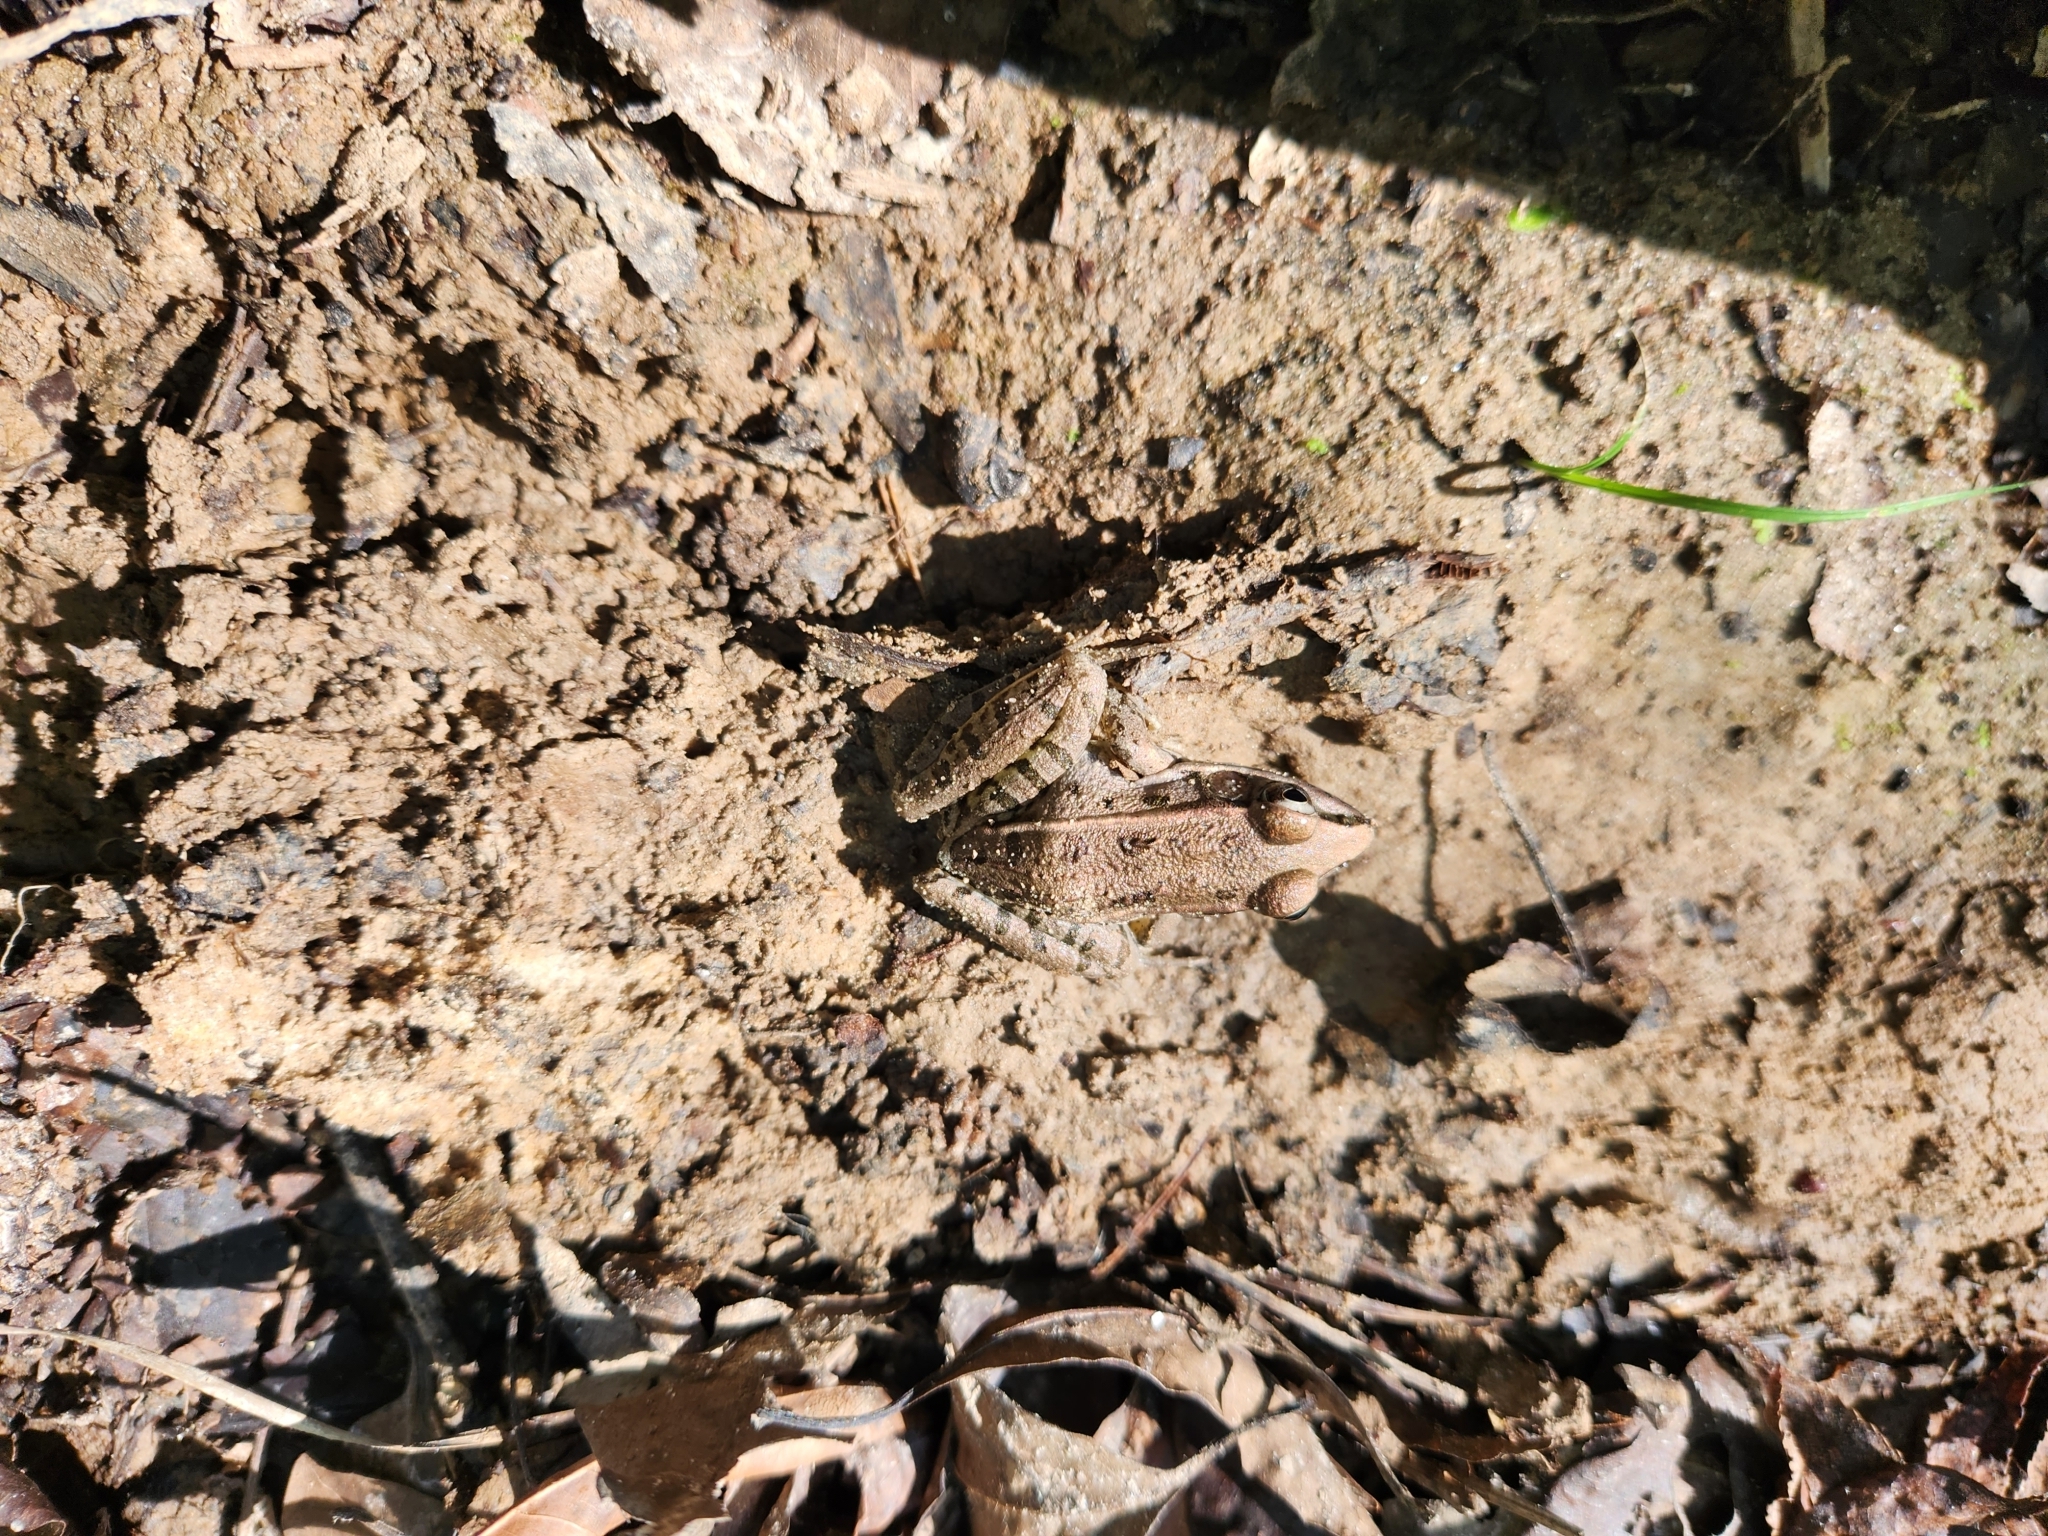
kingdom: Animalia
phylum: Chordata
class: Amphibia
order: Anura
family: Ranidae
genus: Lithobates
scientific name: Lithobates sphenocephalus
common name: Southern leopard frog
